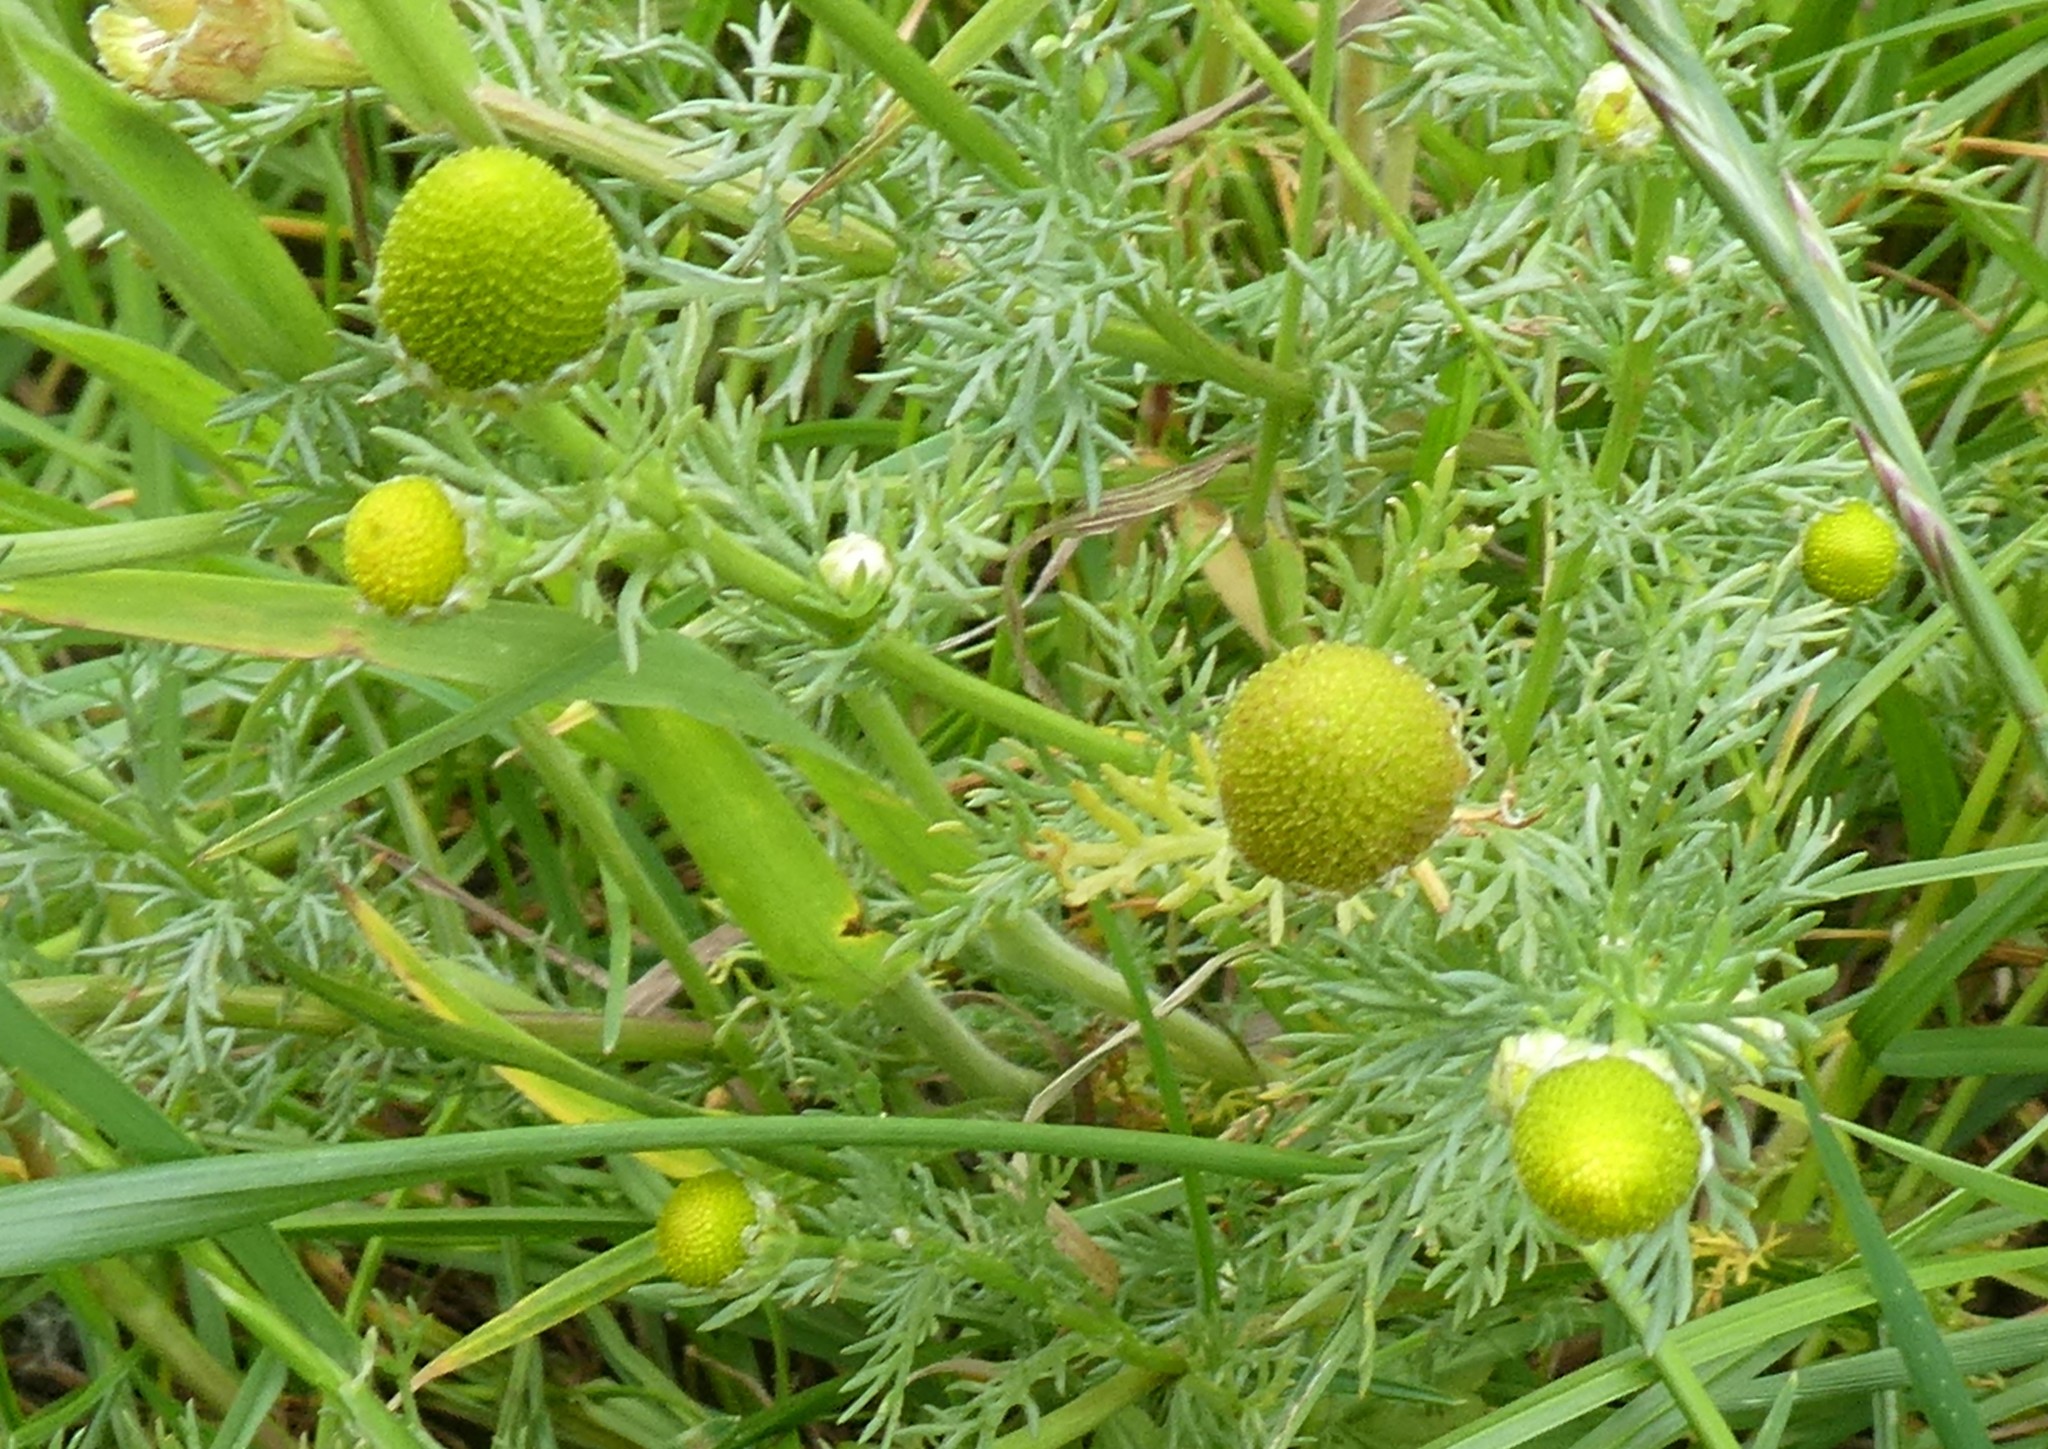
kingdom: Plantae
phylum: Tracheophyta
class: Magnoliopsida
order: Asterales
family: Asteraceae
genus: Matricaria
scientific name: Matricaria discoidea
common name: Disc mayweed
